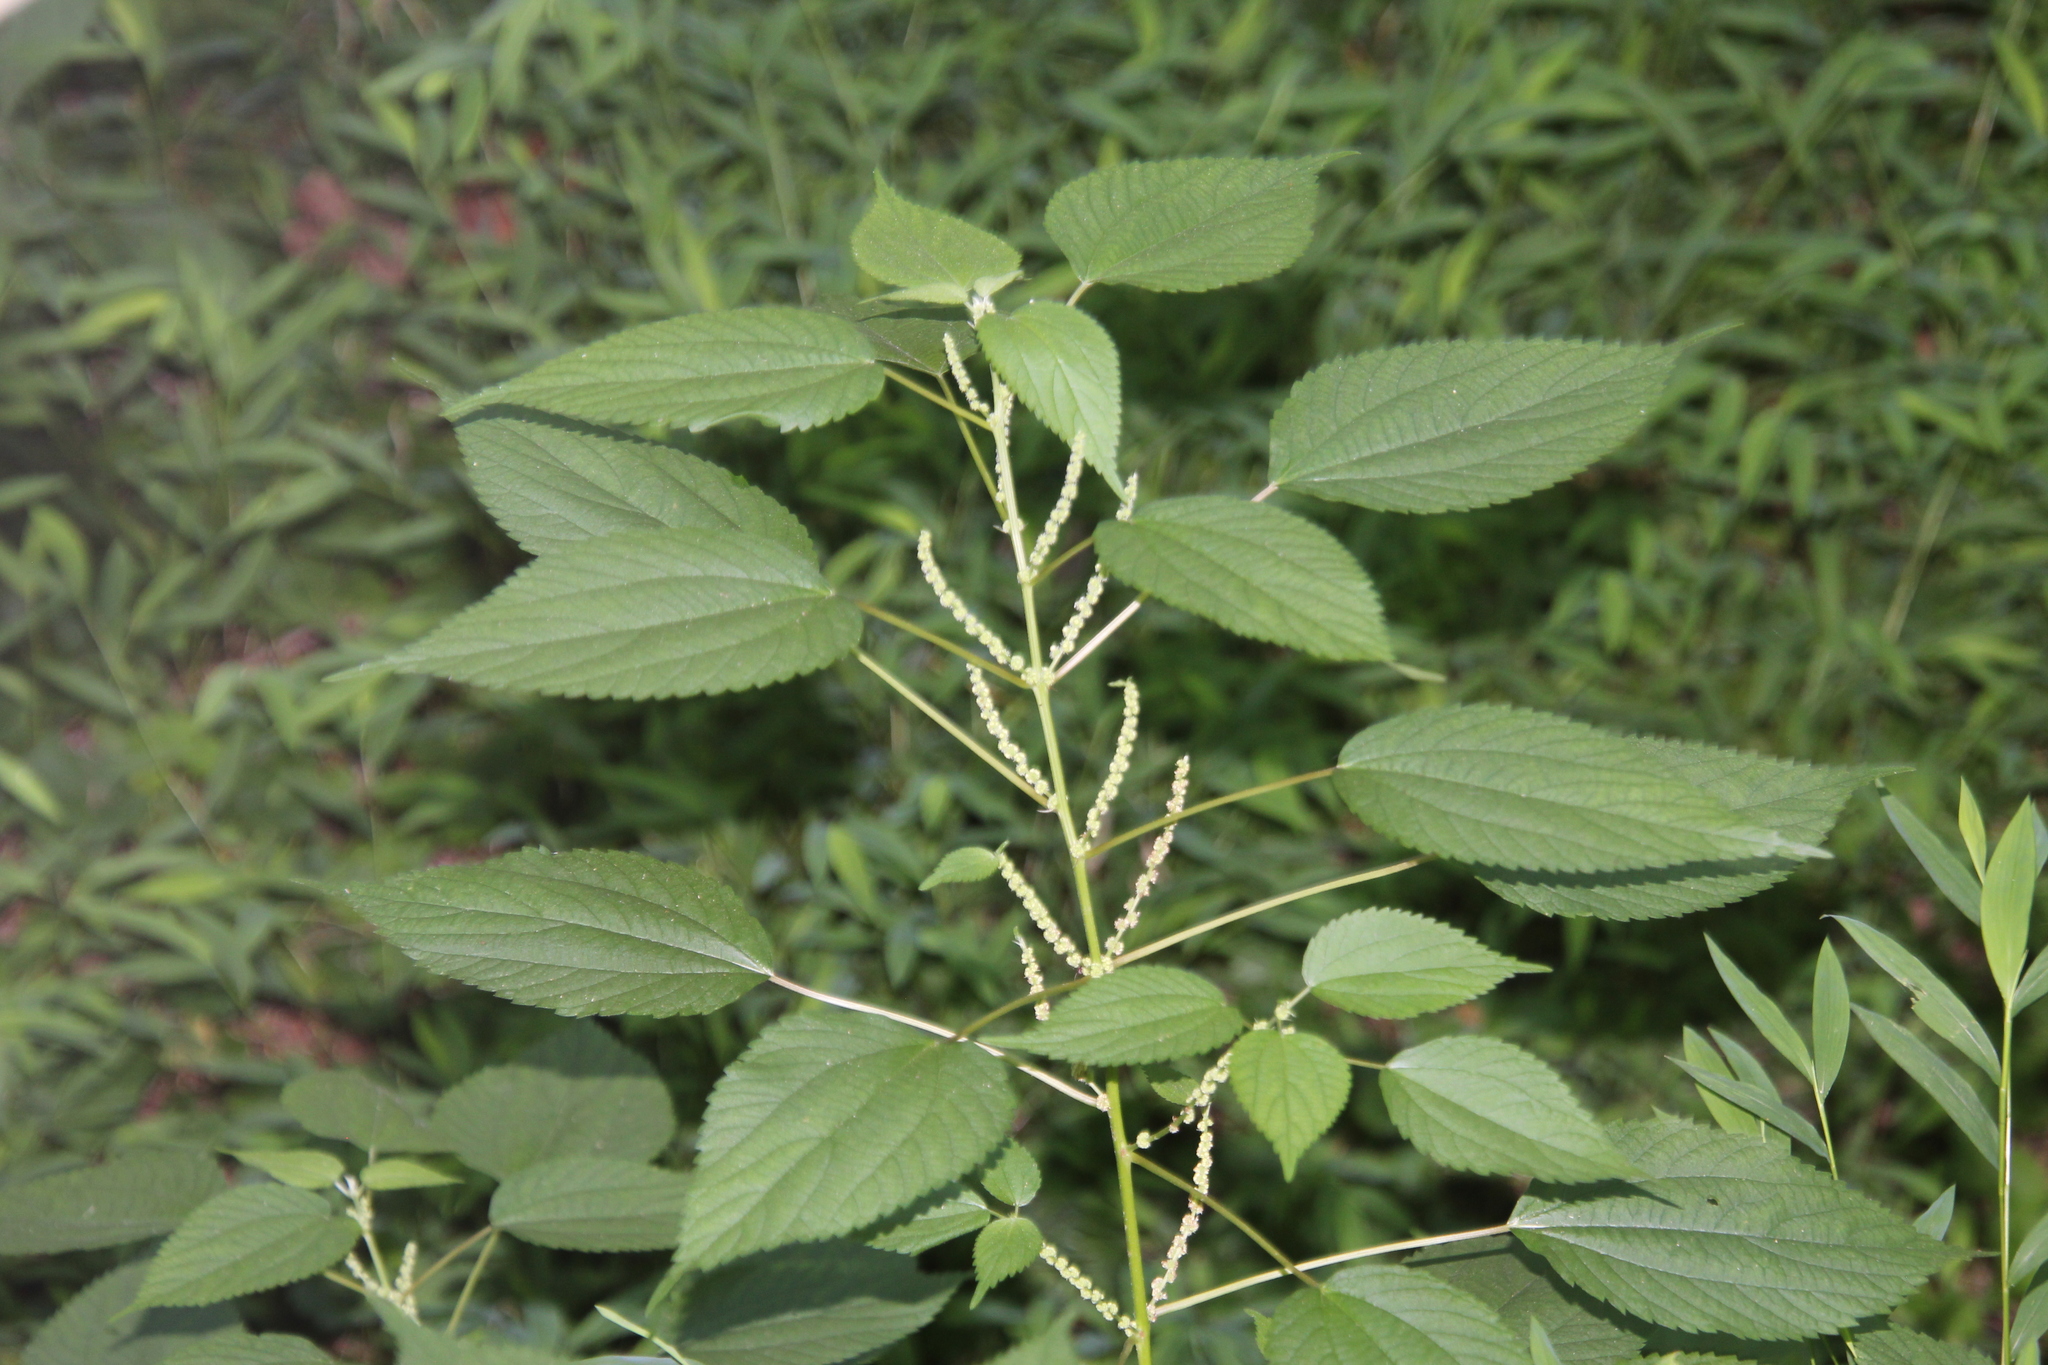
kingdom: Plantae
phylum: Tracheophyta
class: Magnoliopsida
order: Rosales
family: Urticaceae
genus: Boehmeria
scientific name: Boehmeria cylindrica
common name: Bog-hemp
